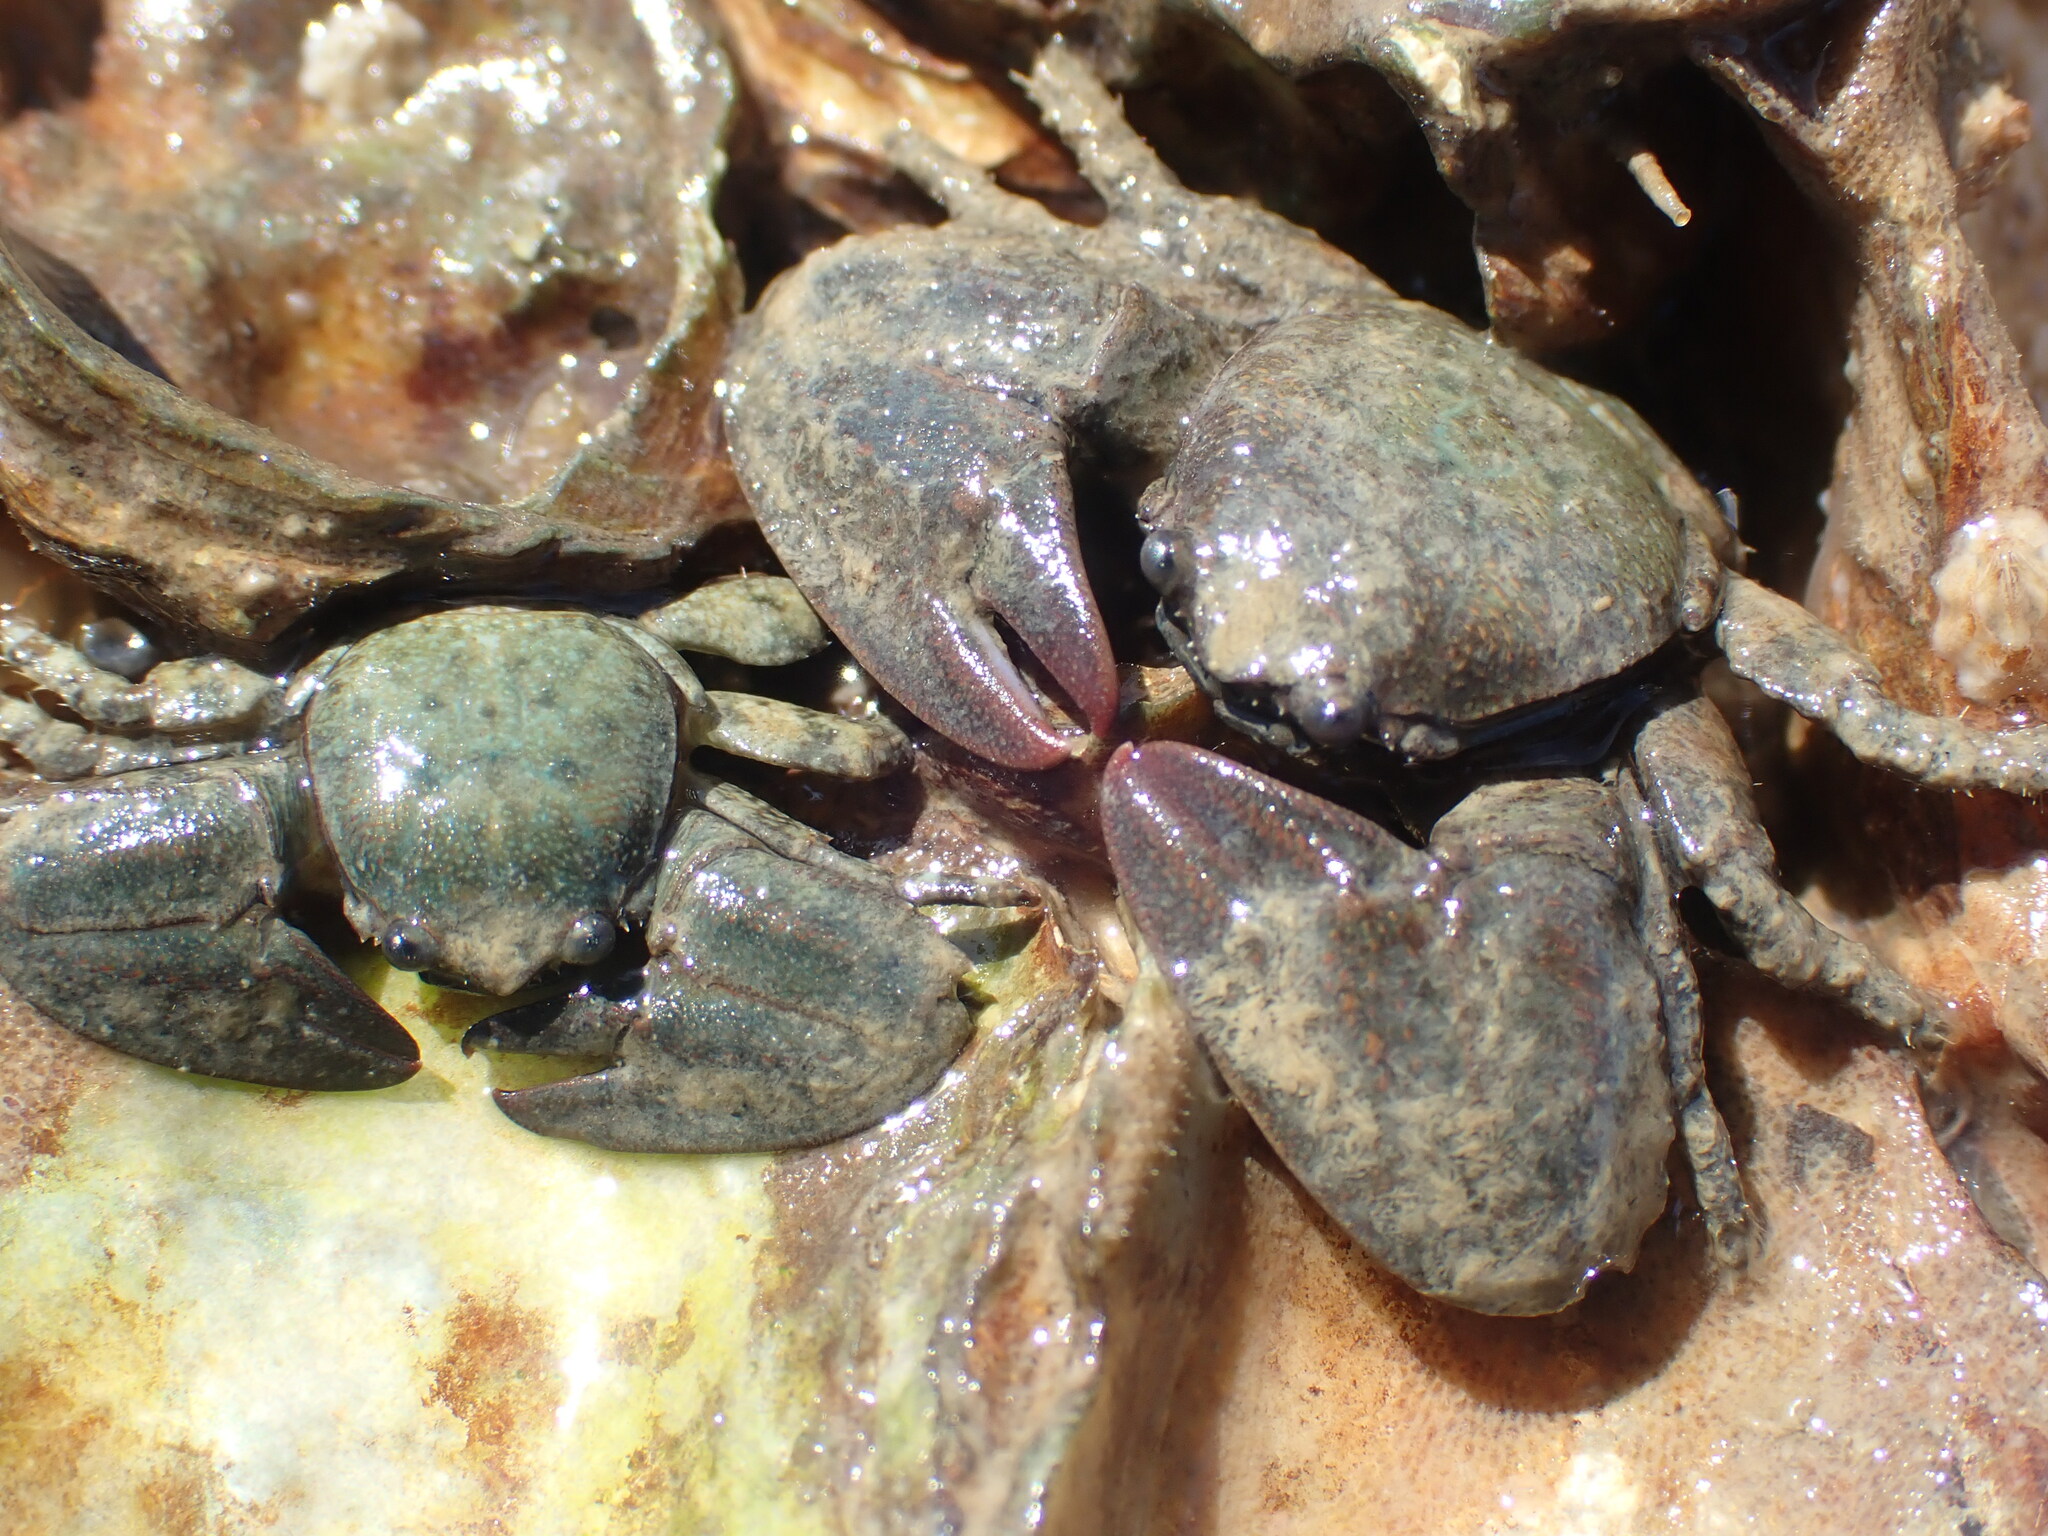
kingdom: Animalia
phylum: Arthropoda
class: Malacostraca
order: Decapoda
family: Porcellanidae
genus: Petrolisthes
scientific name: Petrolisthes elongatus
